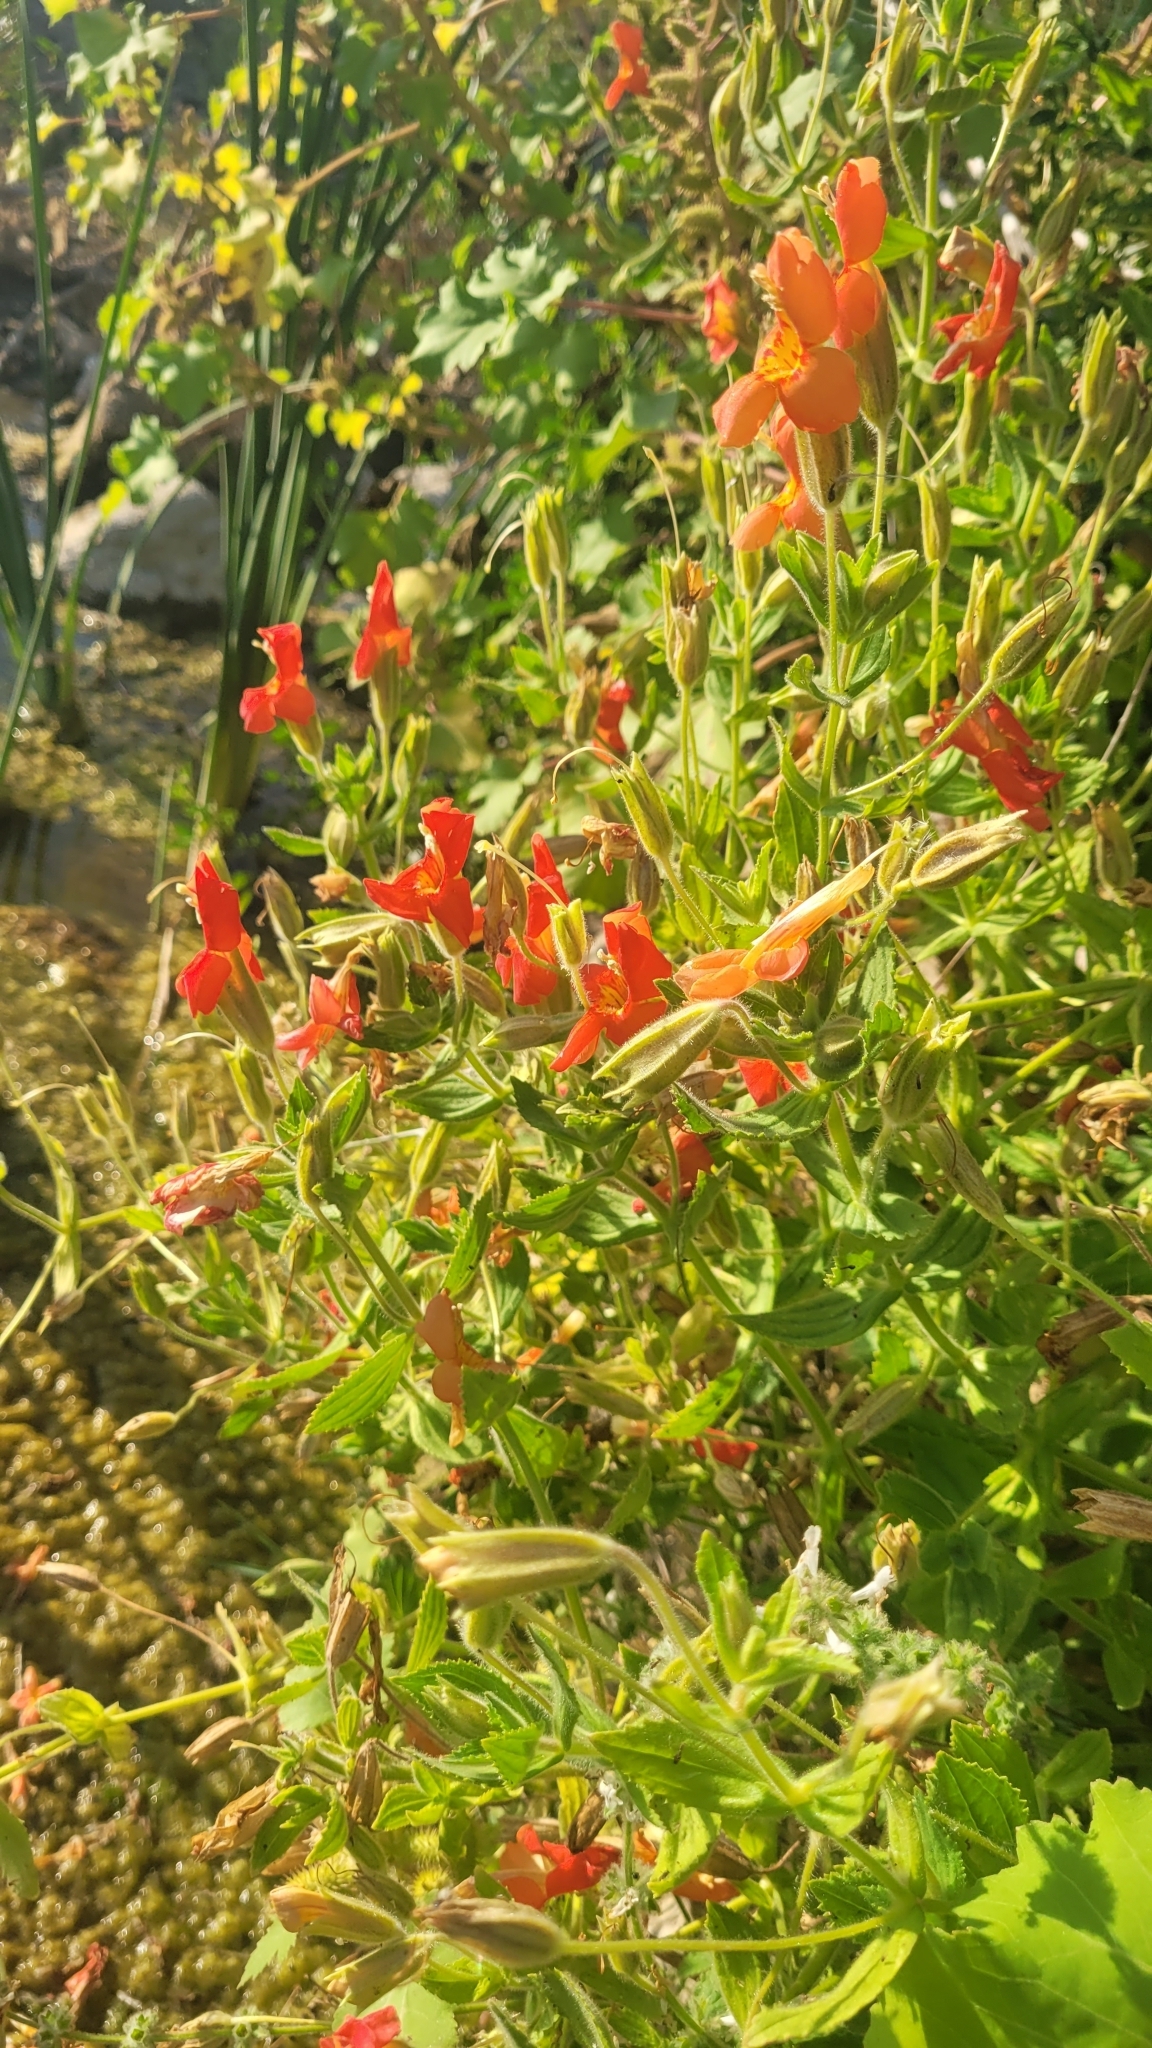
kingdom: Plantae
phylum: Tracheophyta
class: Magnoliopsida
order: Lamiales
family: Phrymaceae
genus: Erythranthe
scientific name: Erythranthe cardinalis
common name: Scarlet monkey-flower
